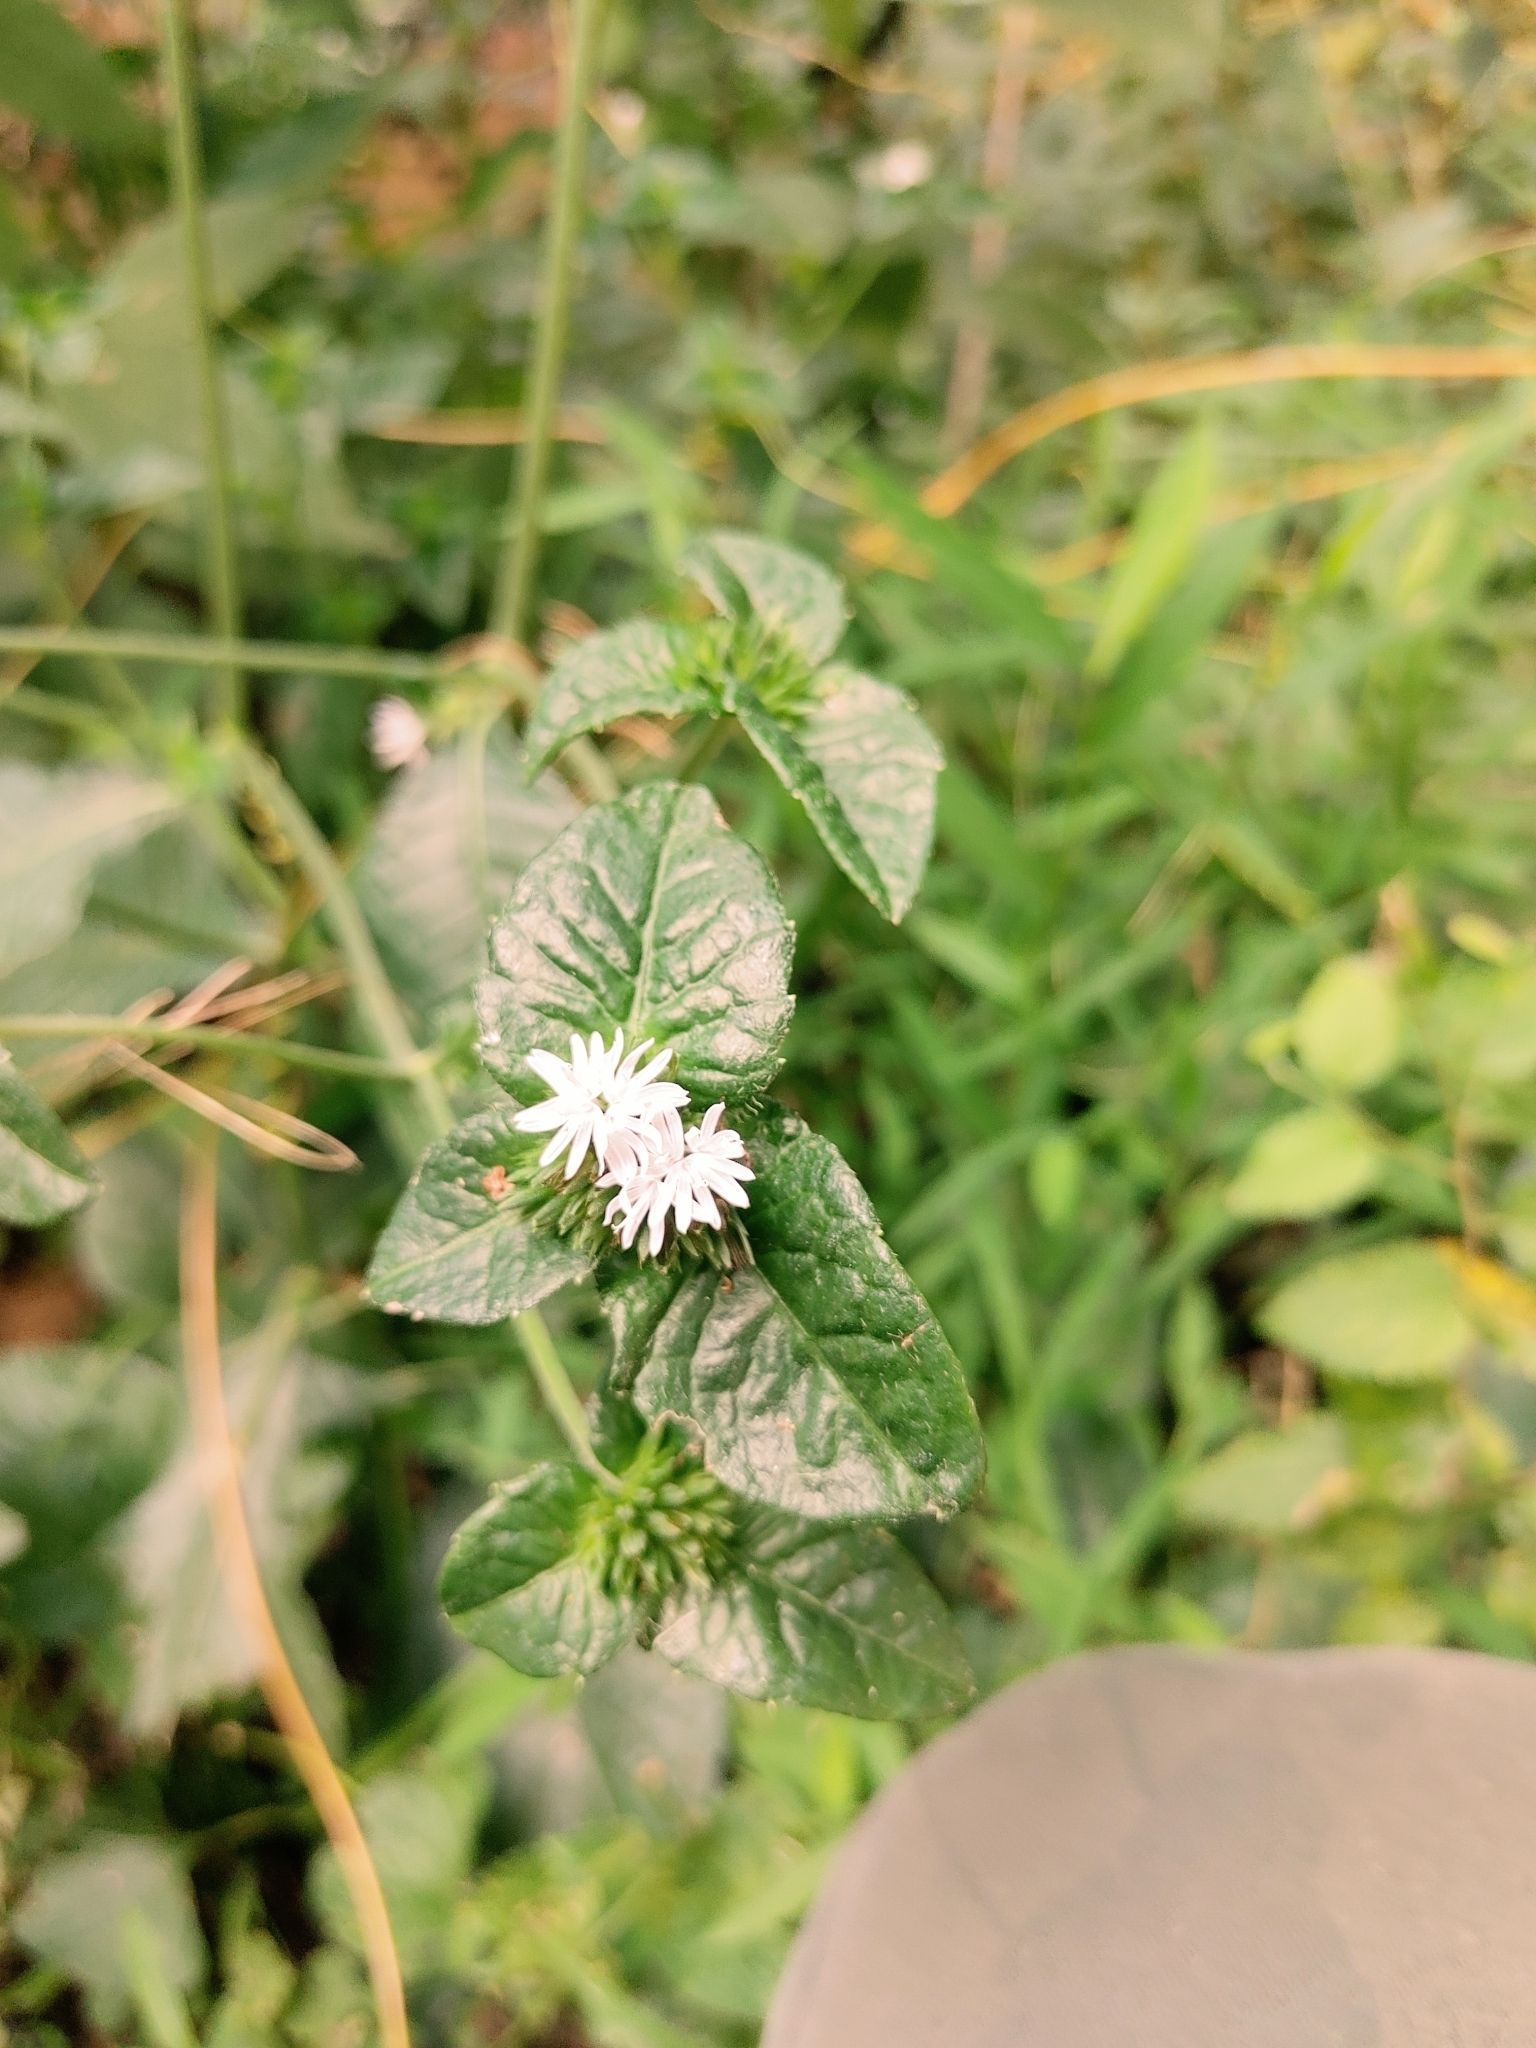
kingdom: Plantae
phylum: Tracheophyta
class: Magnoliopsida
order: Asterales
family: Asteraceae
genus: Elephantopus
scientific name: Elephantopus carolinianus
